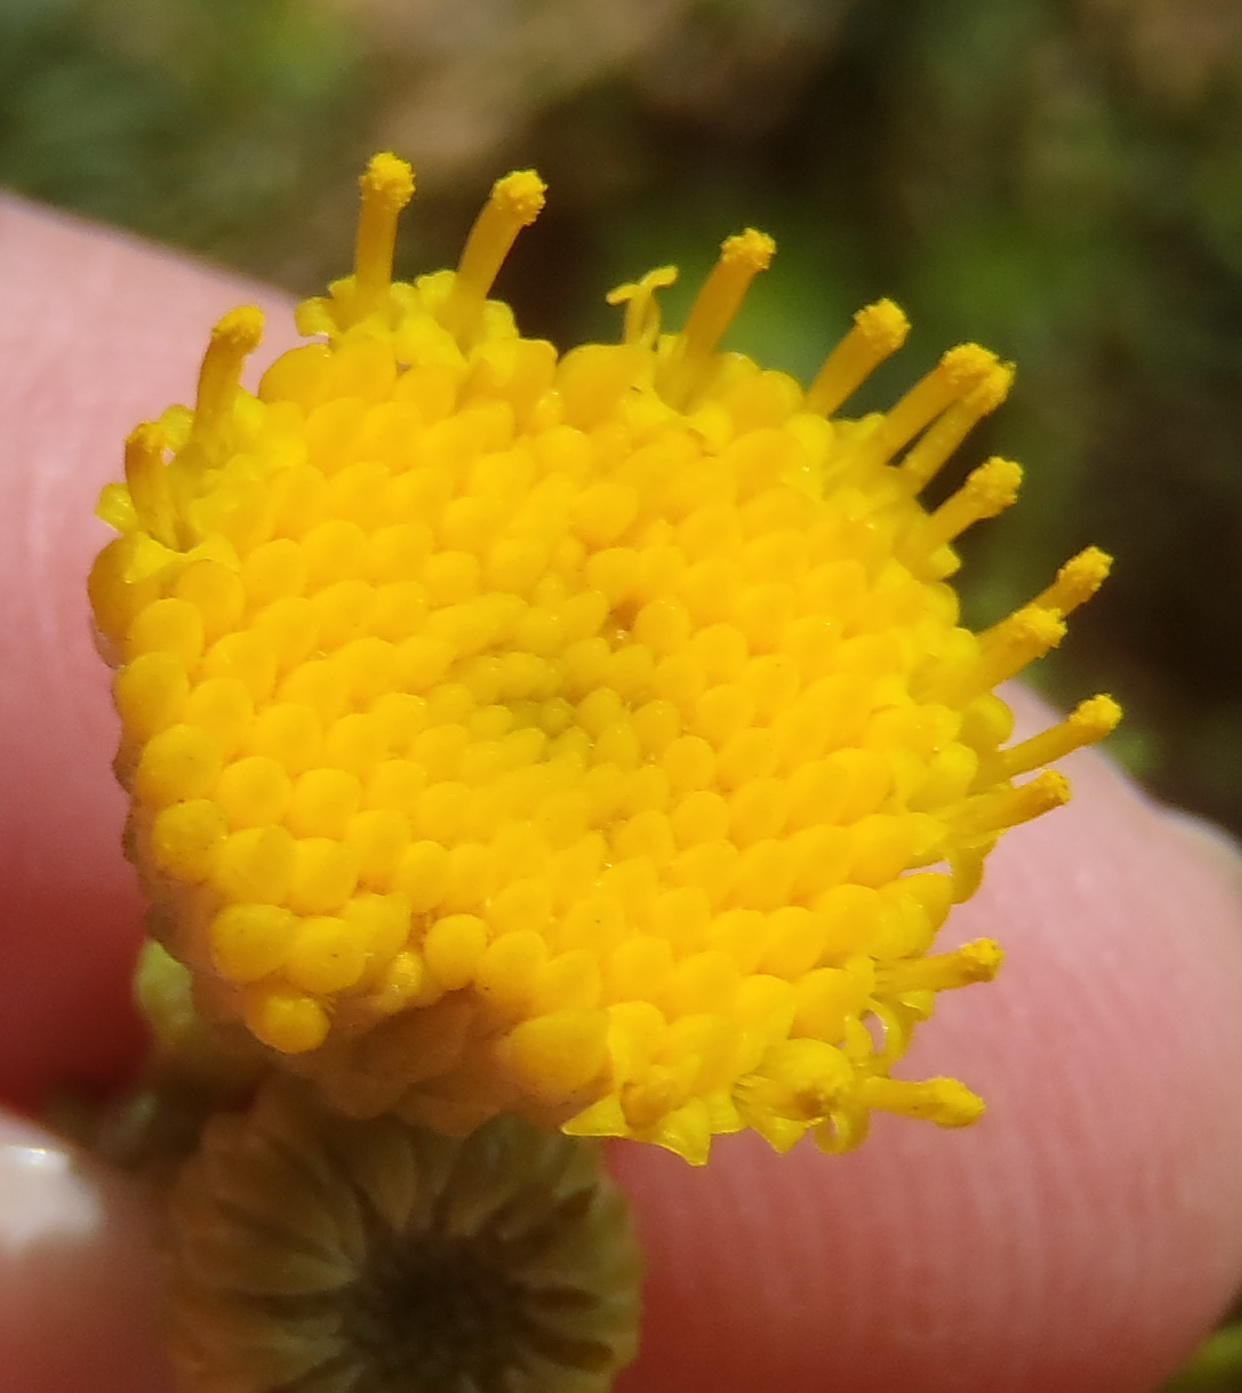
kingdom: Plantae
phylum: Tracheophyta
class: Magnoliopsida
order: Asterales
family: Asteraceae
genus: Chrysocoma
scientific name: Chrysocoma cernua
